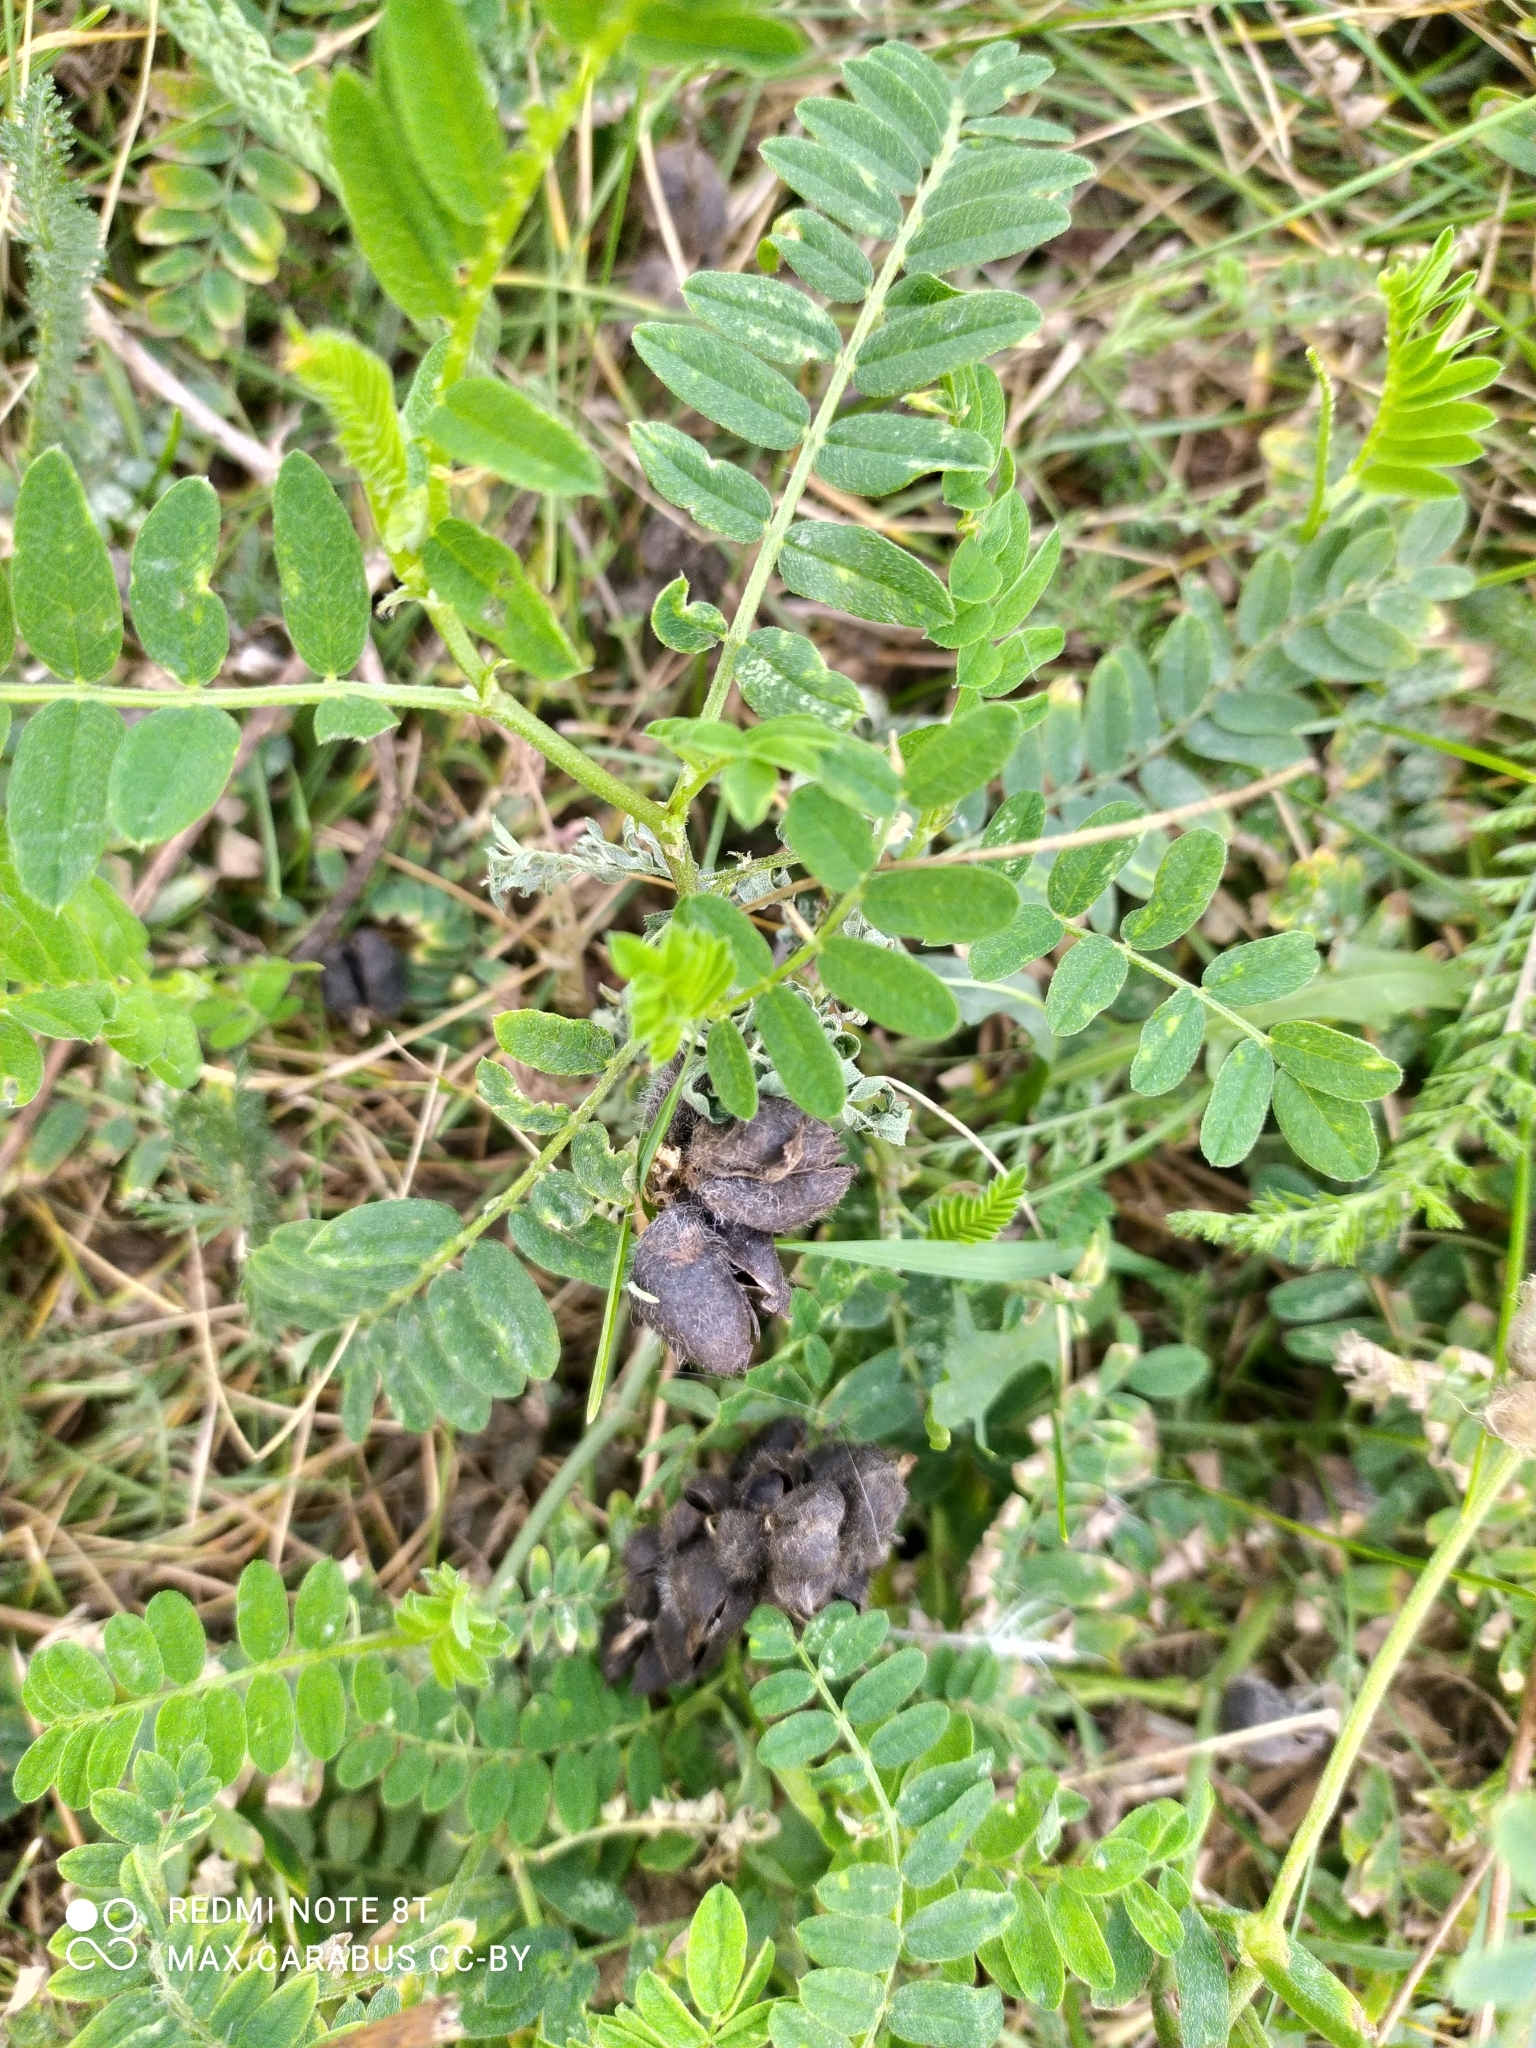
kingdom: Plantae
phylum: Tracheophyta
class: Magnoliopsida
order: Fabales
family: Fabaceae
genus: Astragalus
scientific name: Astragalus cicer
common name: Chick-pea milk-vetch
